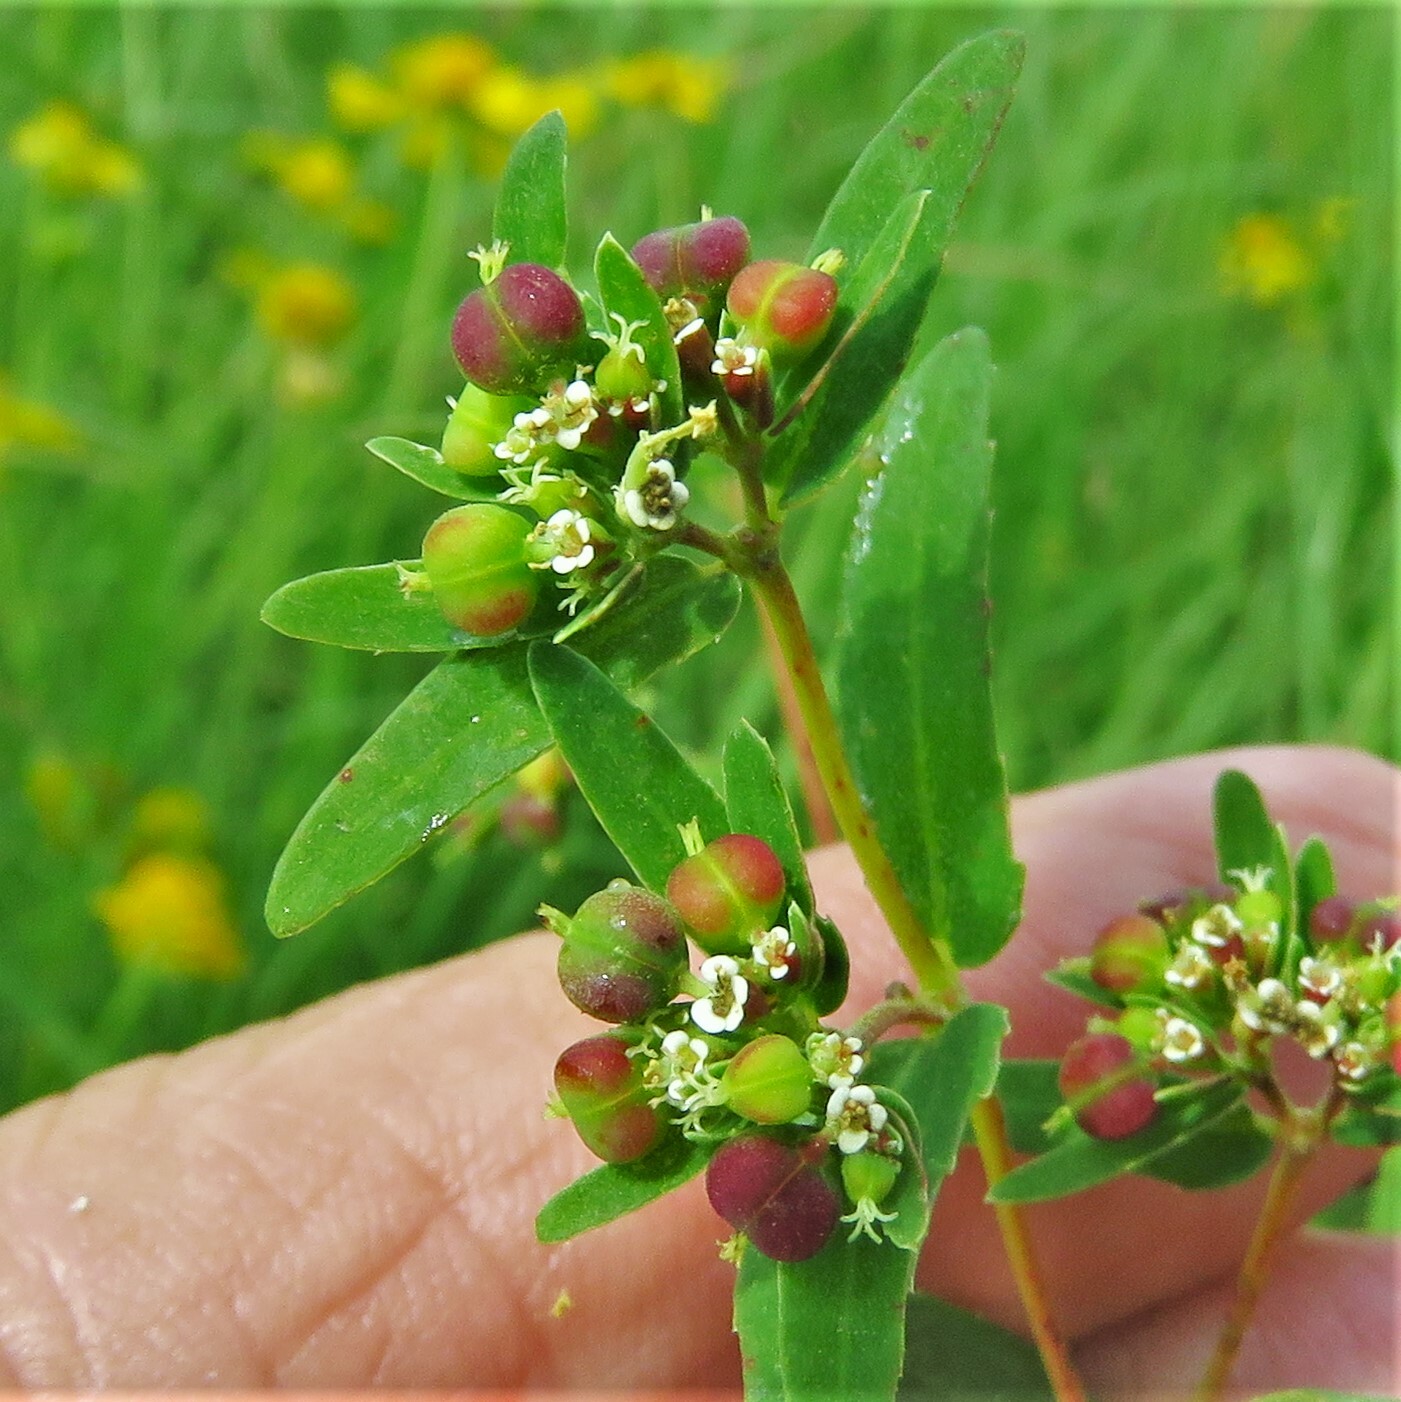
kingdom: Plantae
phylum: Tracheophyta
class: Magnoliopsida
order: Malpighiales
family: Euphorbiaceae
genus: Euphorbia
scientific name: Euphorbia nutans
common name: Eyebane
